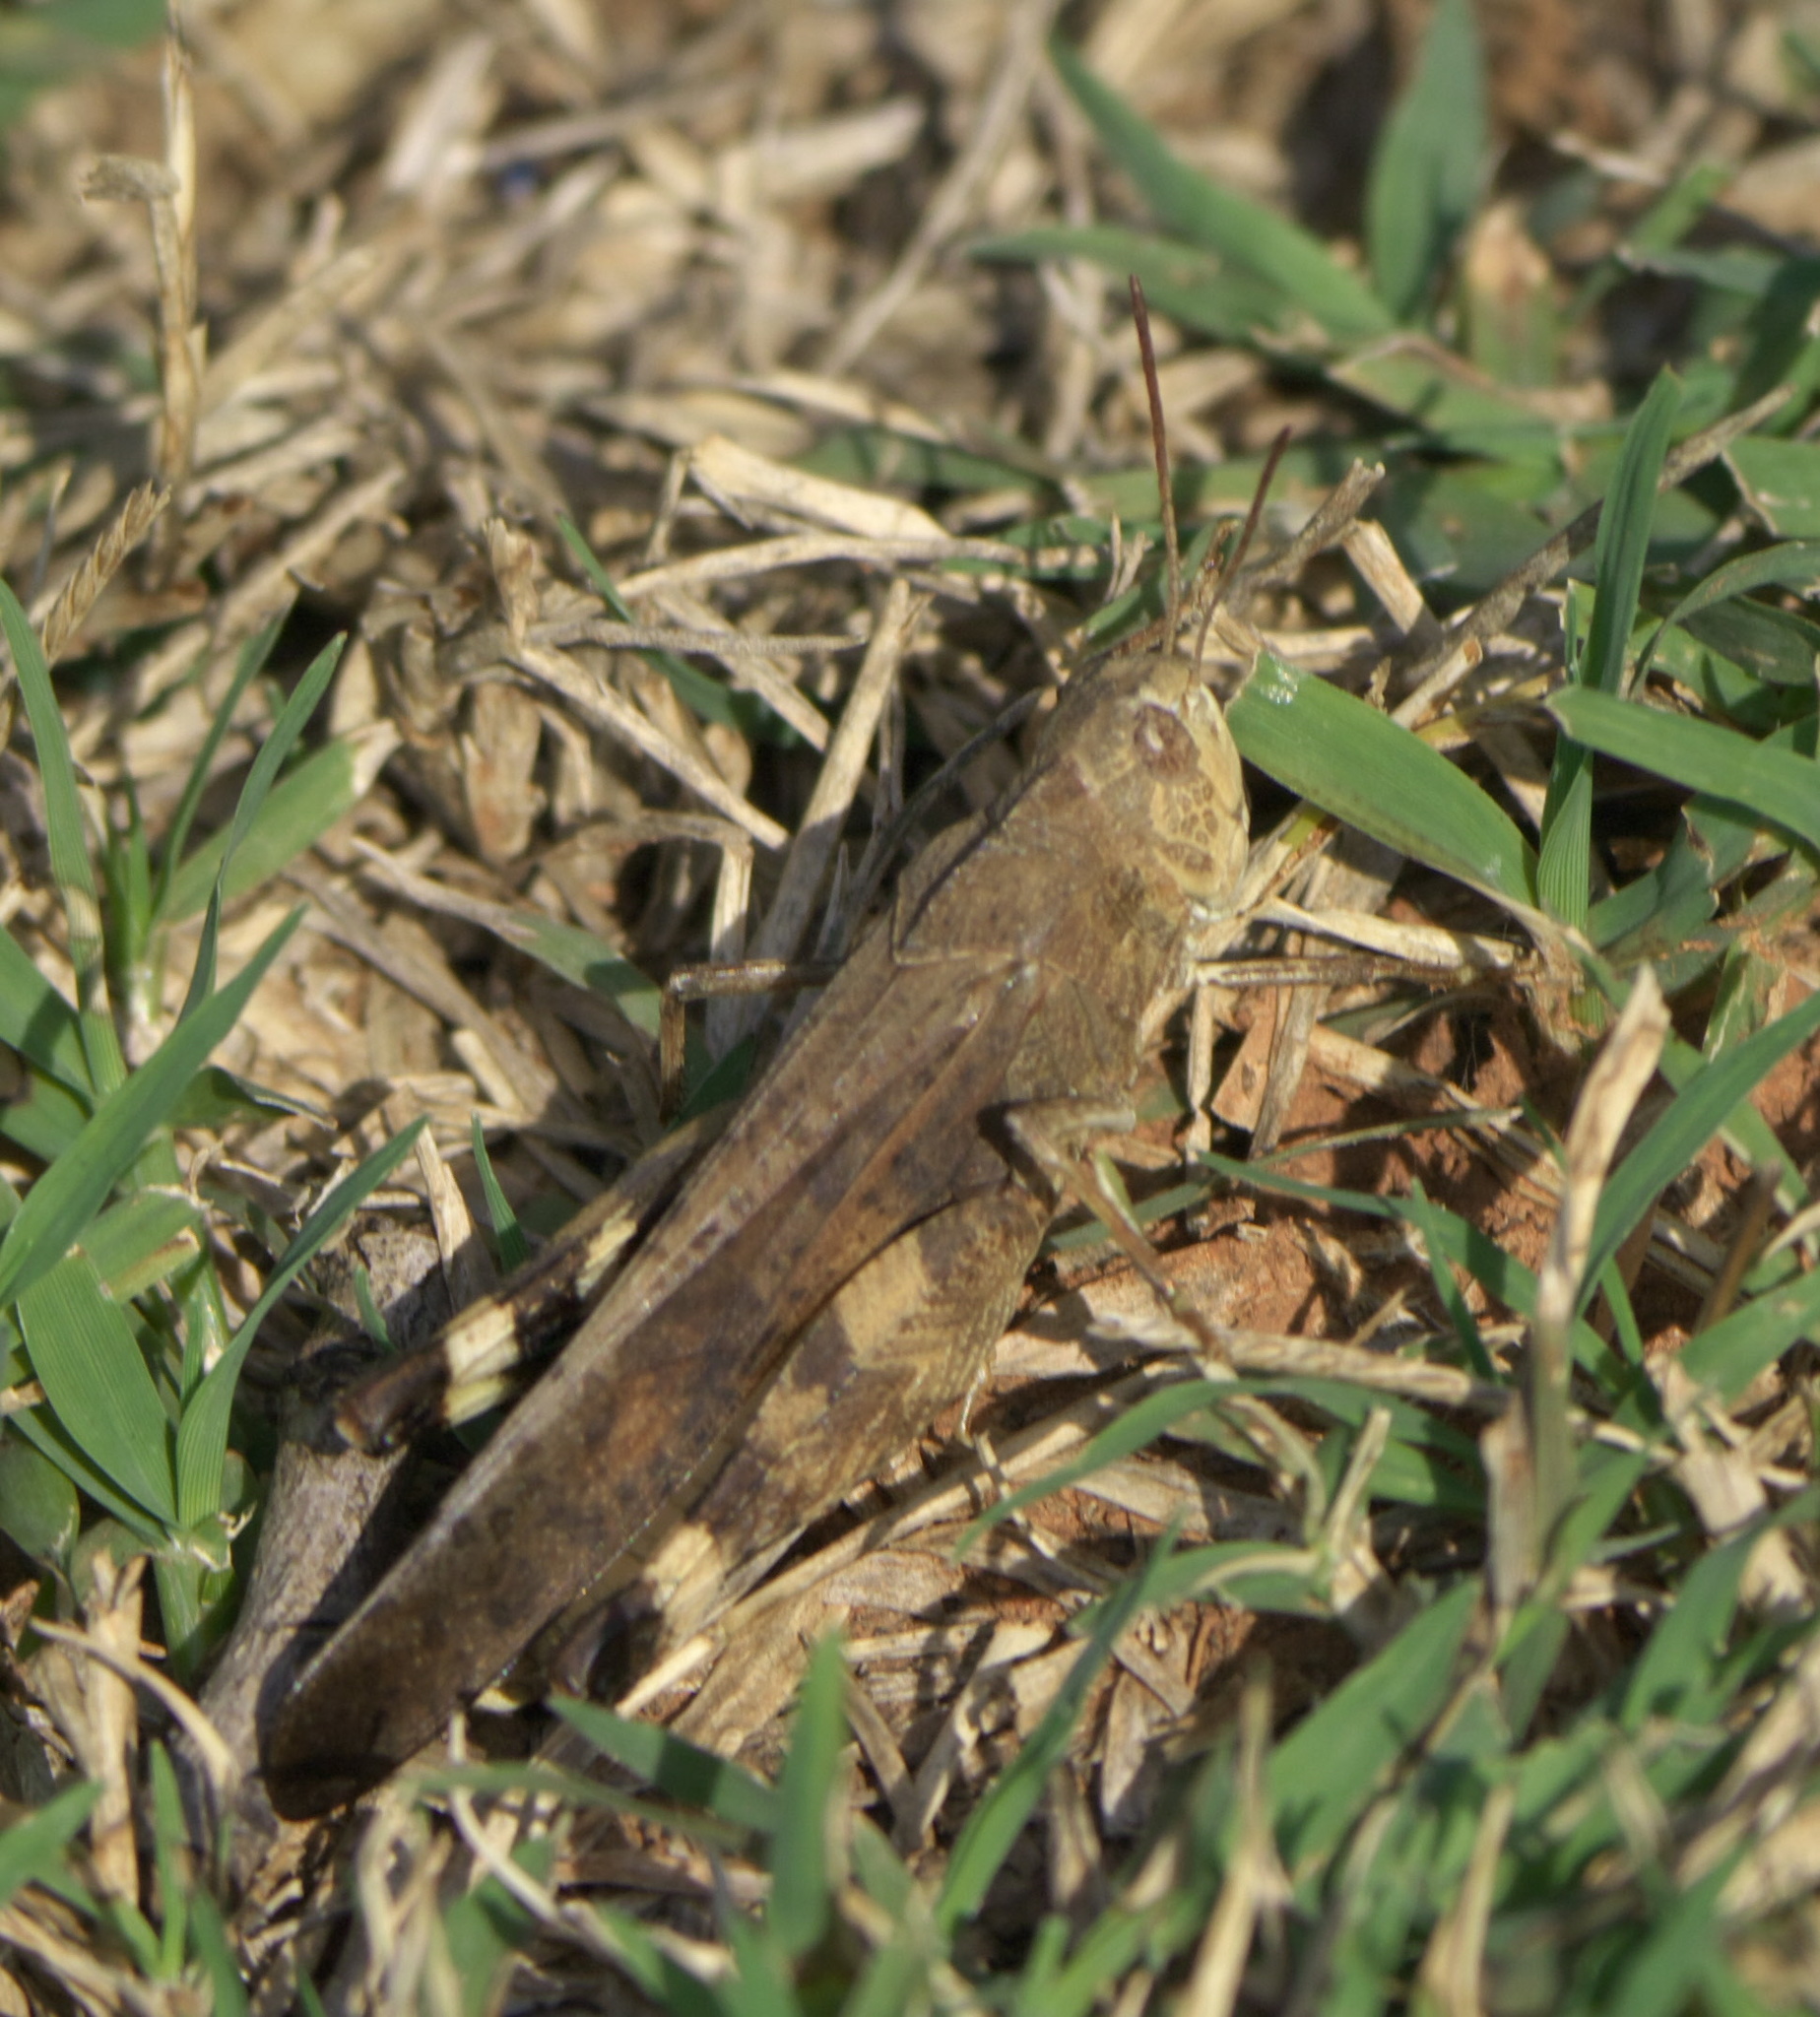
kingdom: Animalia
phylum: Arthropoda
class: Insecta
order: Orthoptera
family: Acrididae
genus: Arphia
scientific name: Arphia simplex
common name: Plains yellow-winged grasshopper
